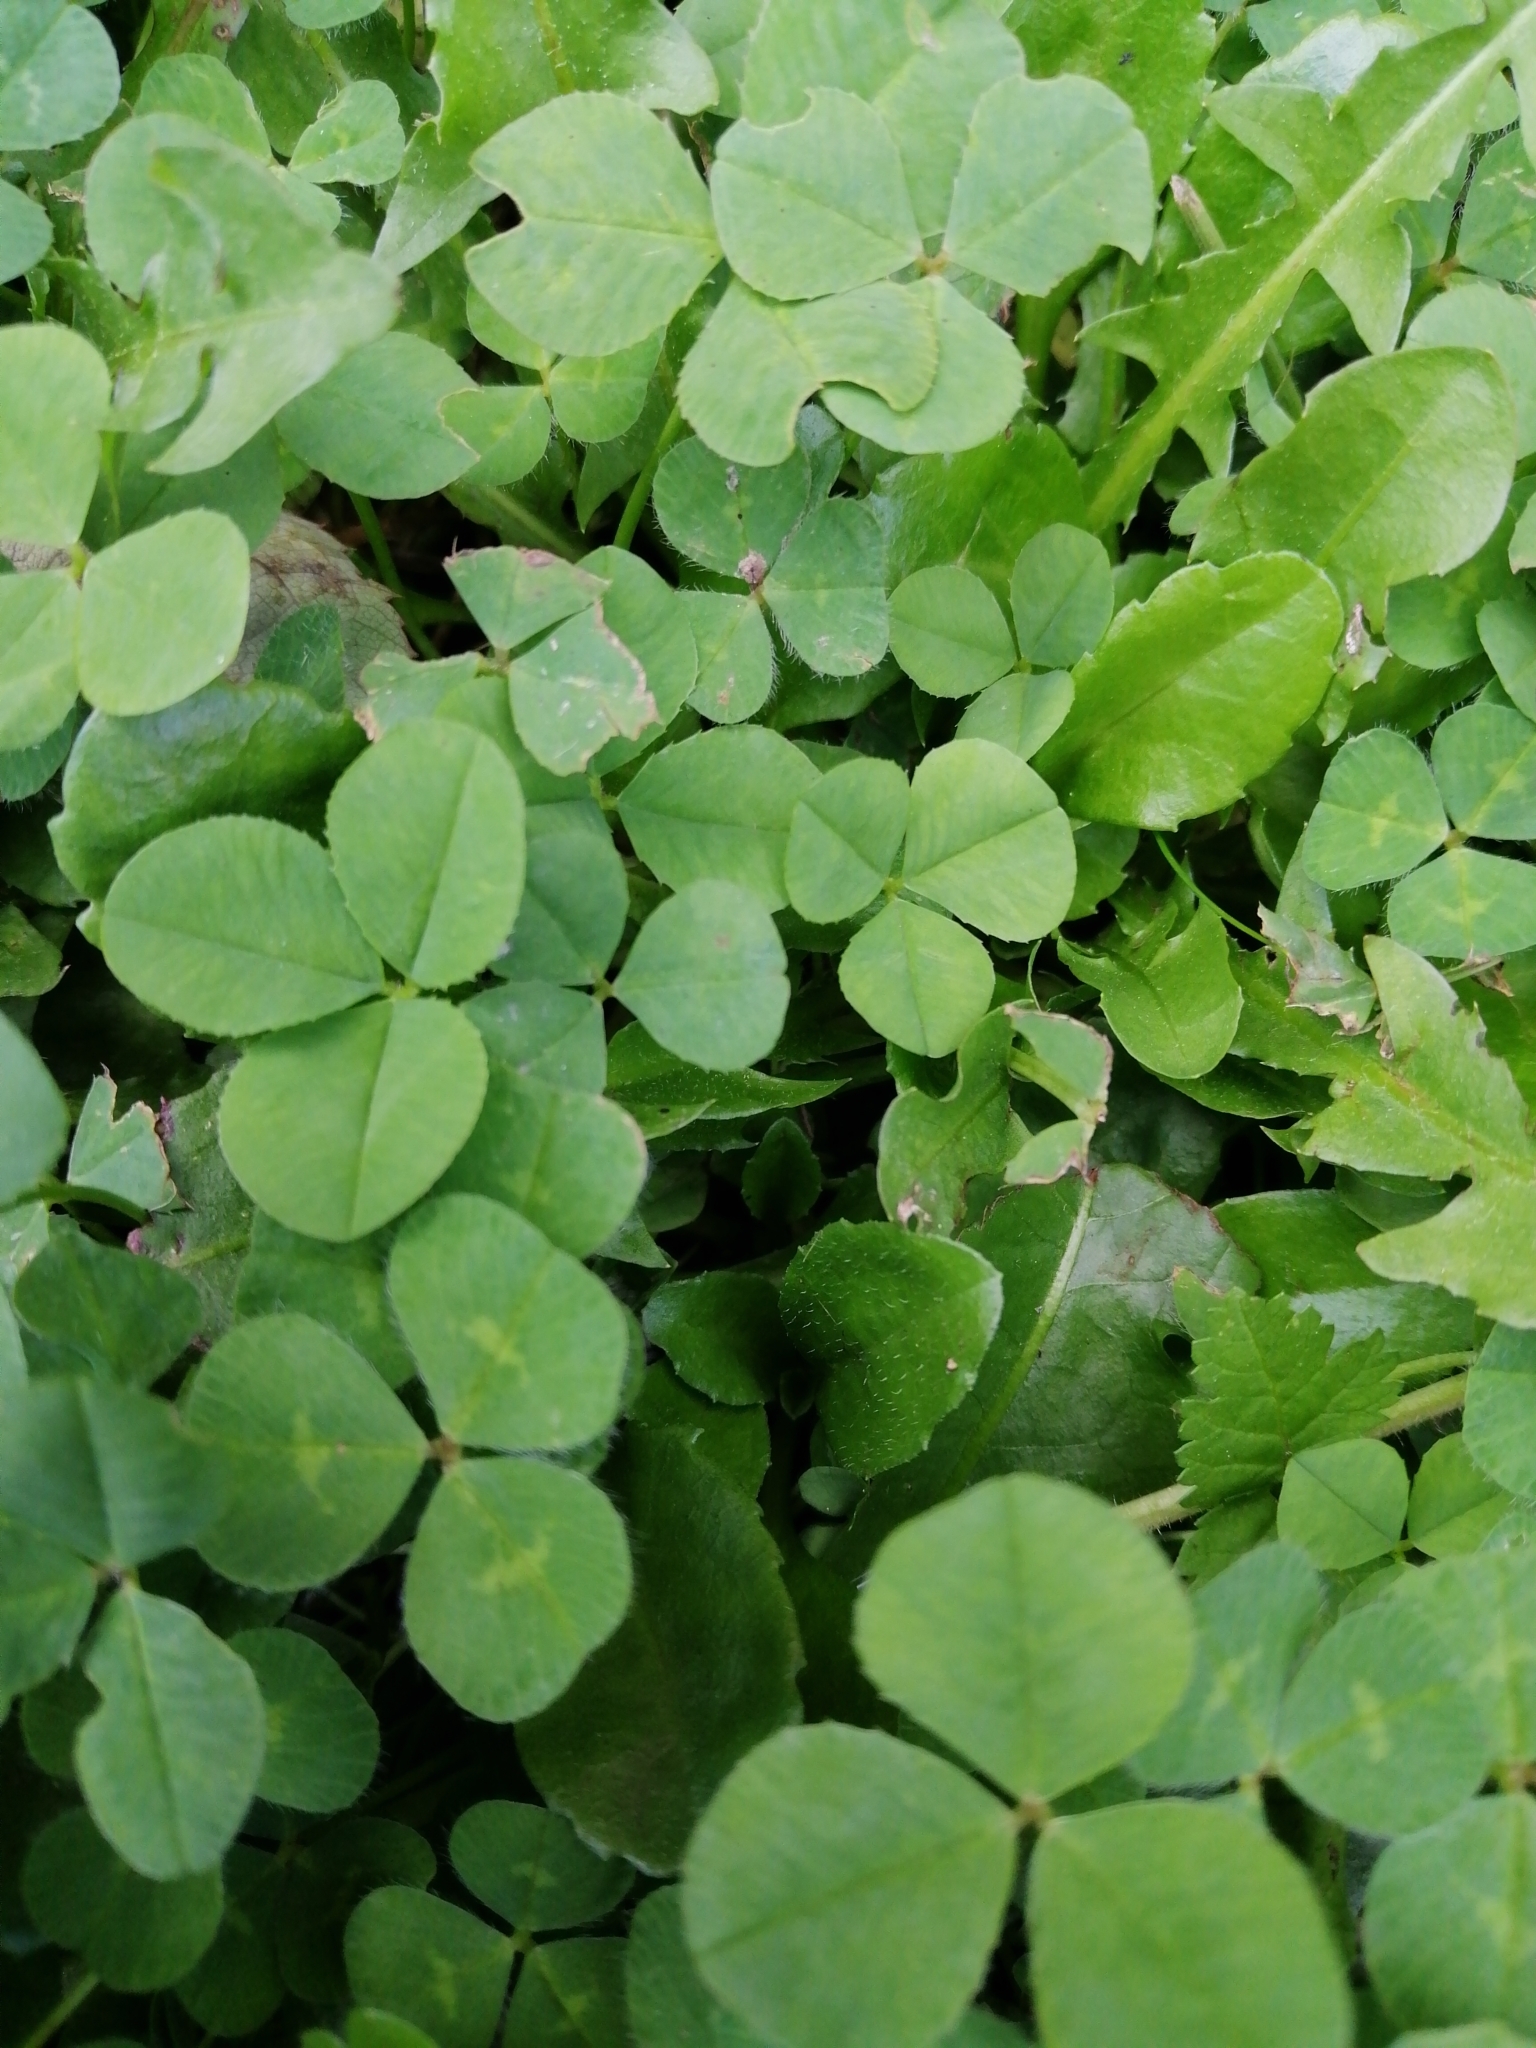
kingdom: Plantae
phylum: Tracheophyta
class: Magnoliopsida
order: Fabales
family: Fabaceae
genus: Trifolium
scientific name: Trifolium repens
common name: White clover
